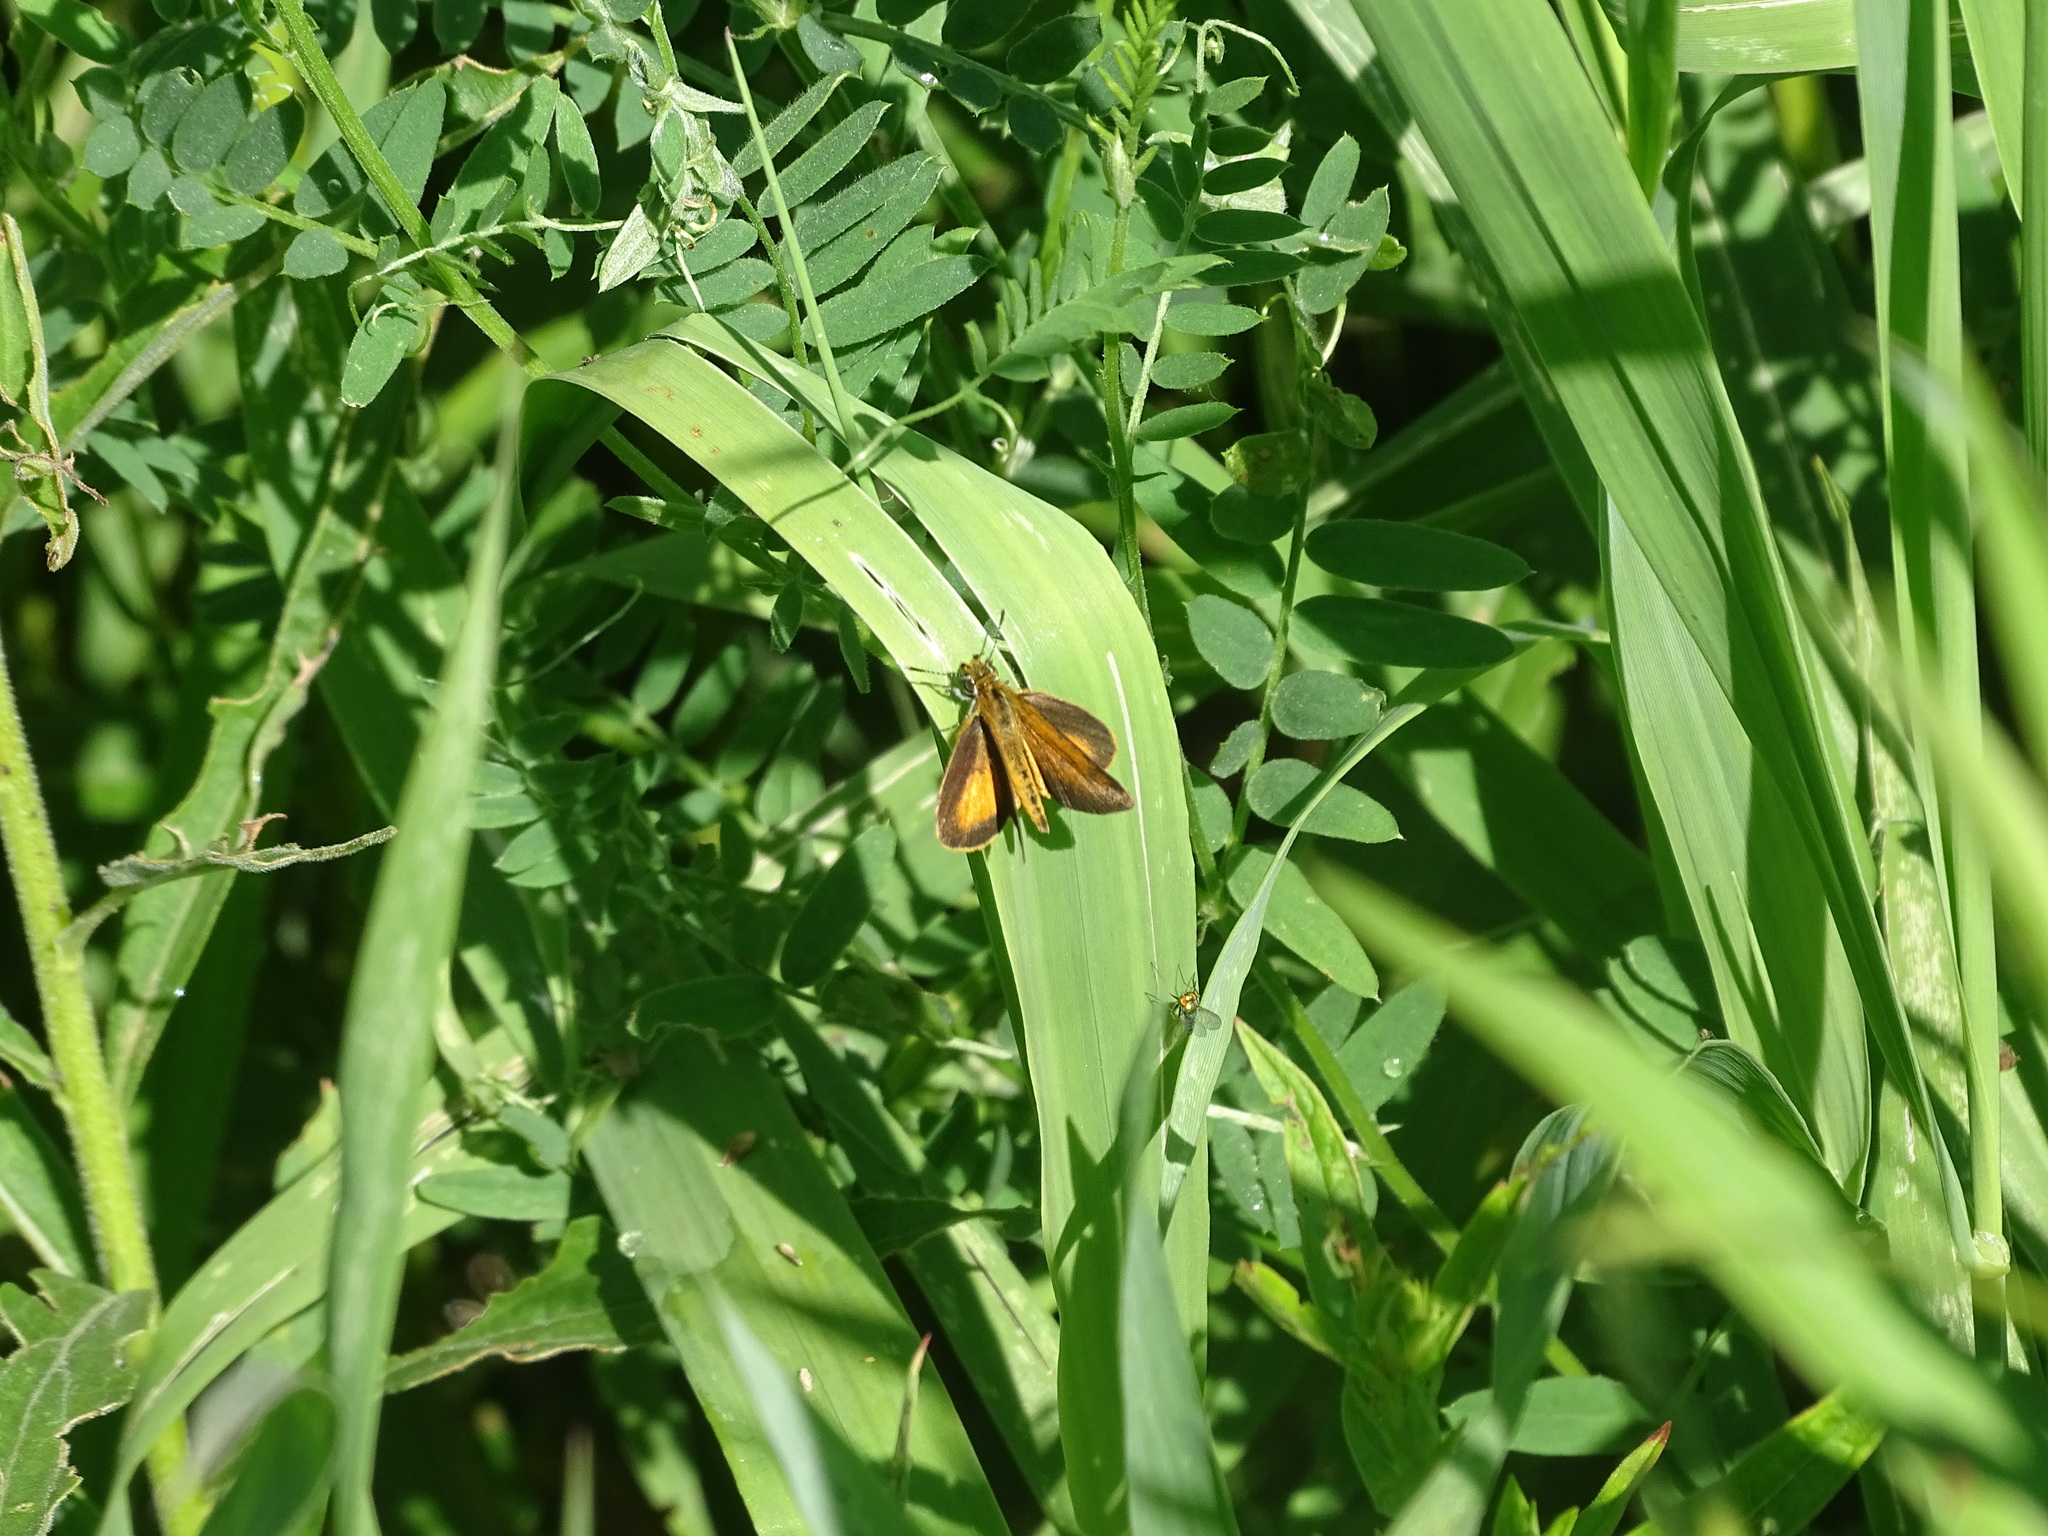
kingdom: Animalia
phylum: Arthropoda
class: Insecta
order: Lepidoptera
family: Hesperiidae
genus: Ancyloxypha
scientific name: Ancyloxypha numitor
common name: Least skipper
